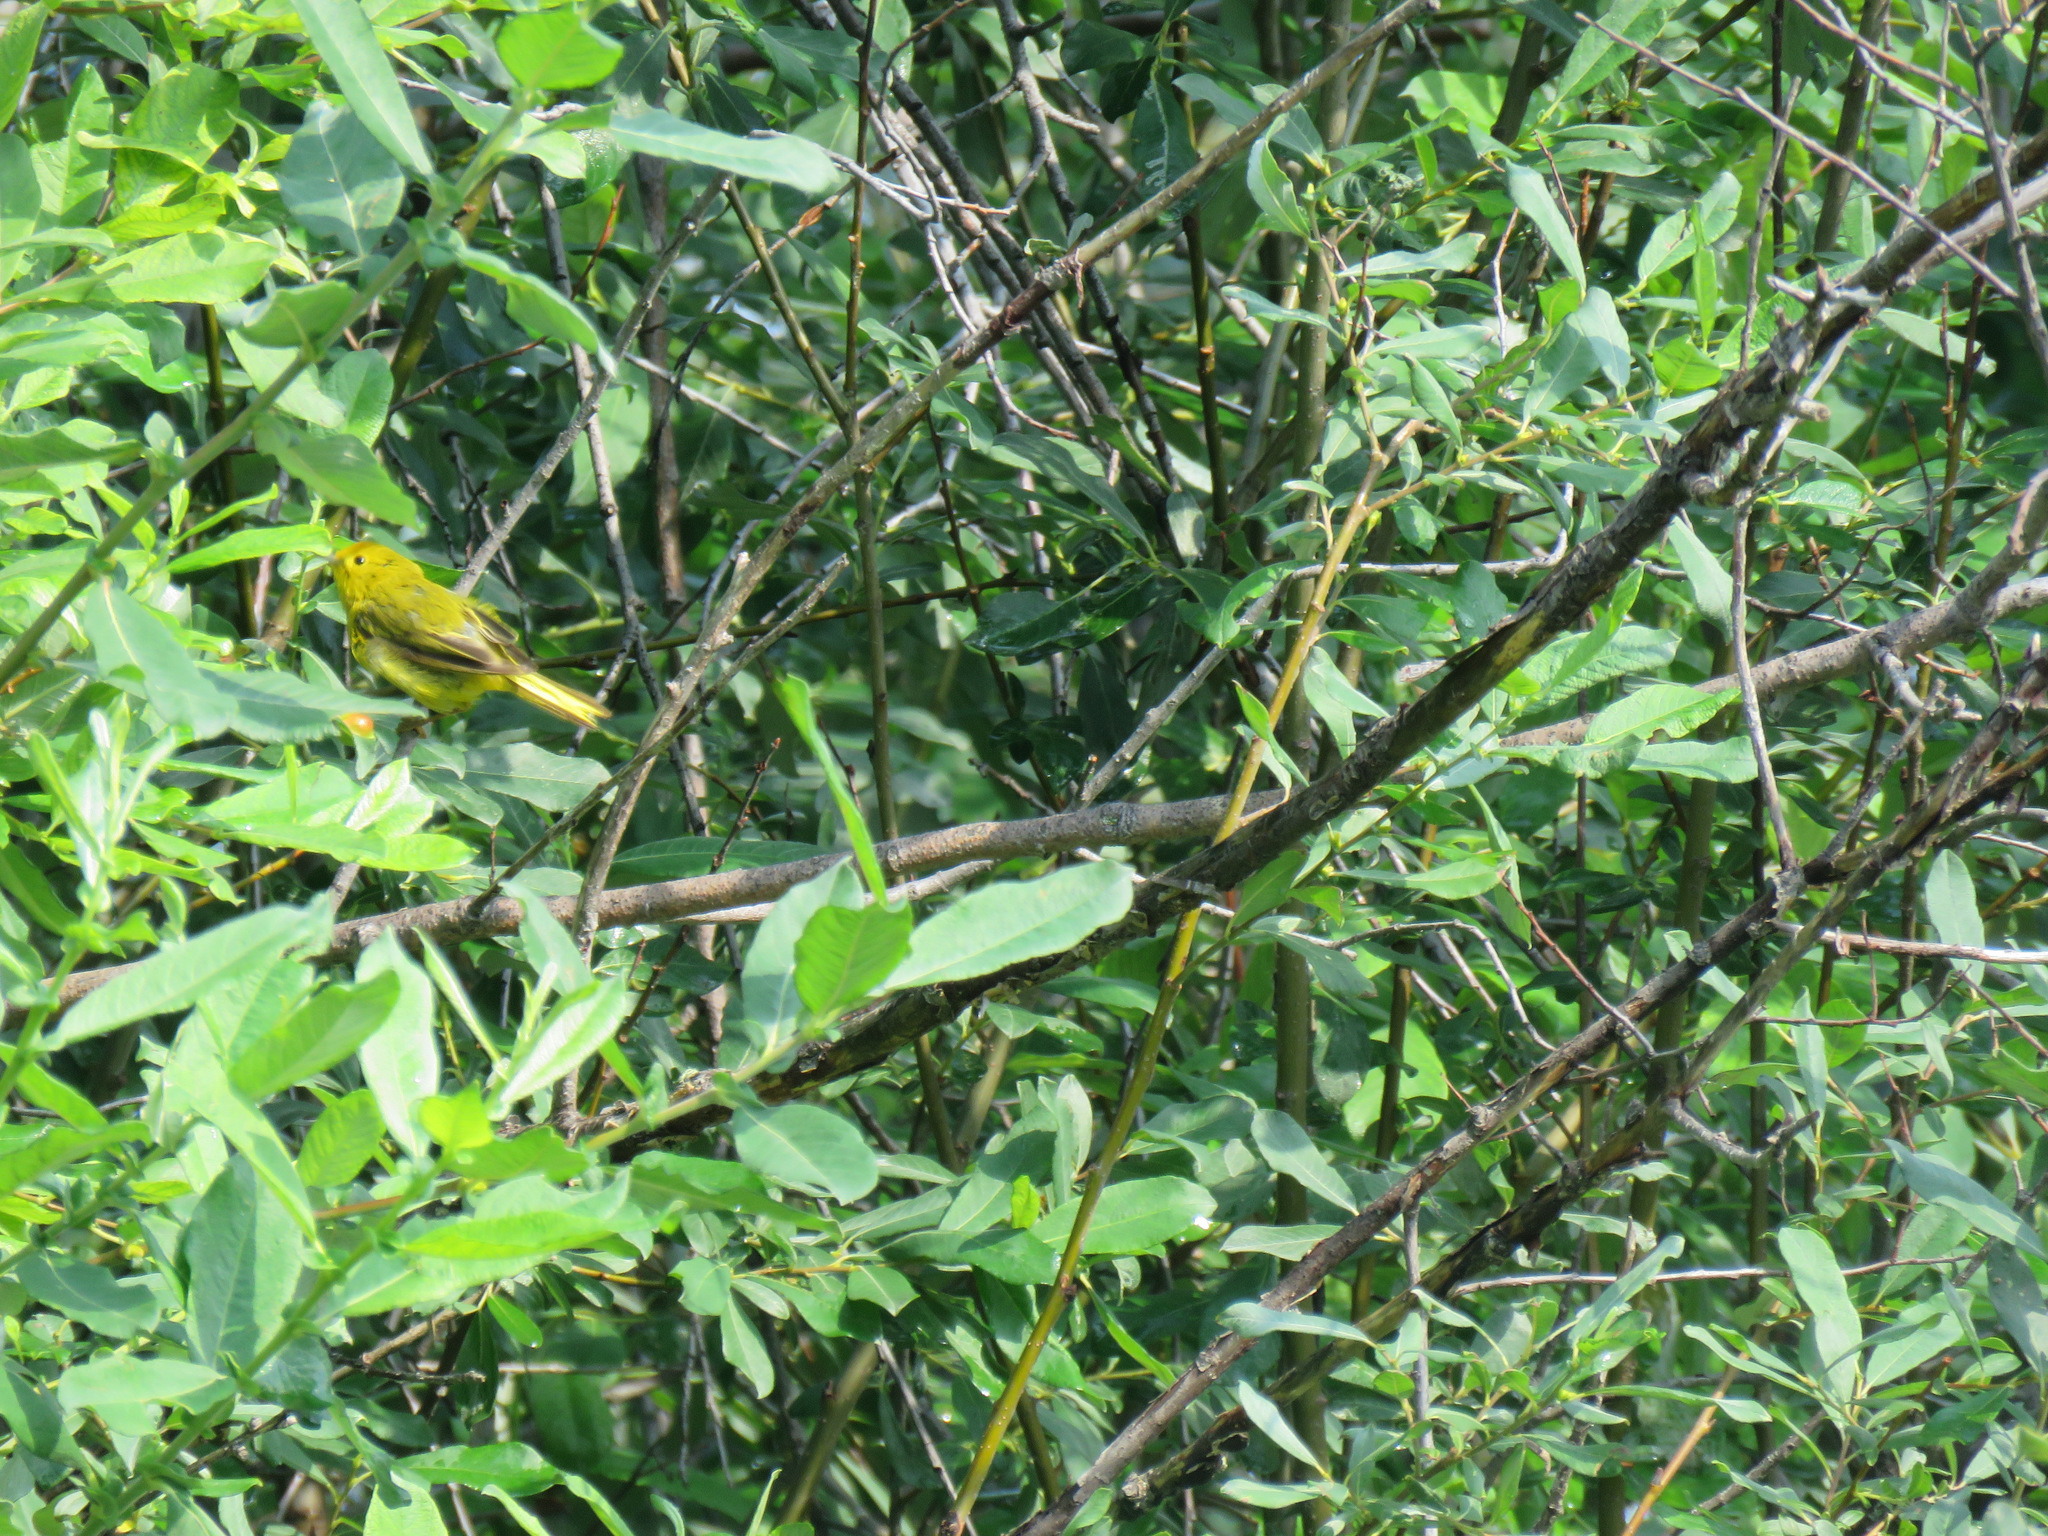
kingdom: Animalia
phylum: Chordata
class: Aves
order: Passeriformes
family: Parulidae
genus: Setophaga
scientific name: Setophaga petechia
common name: Yellow warbler
